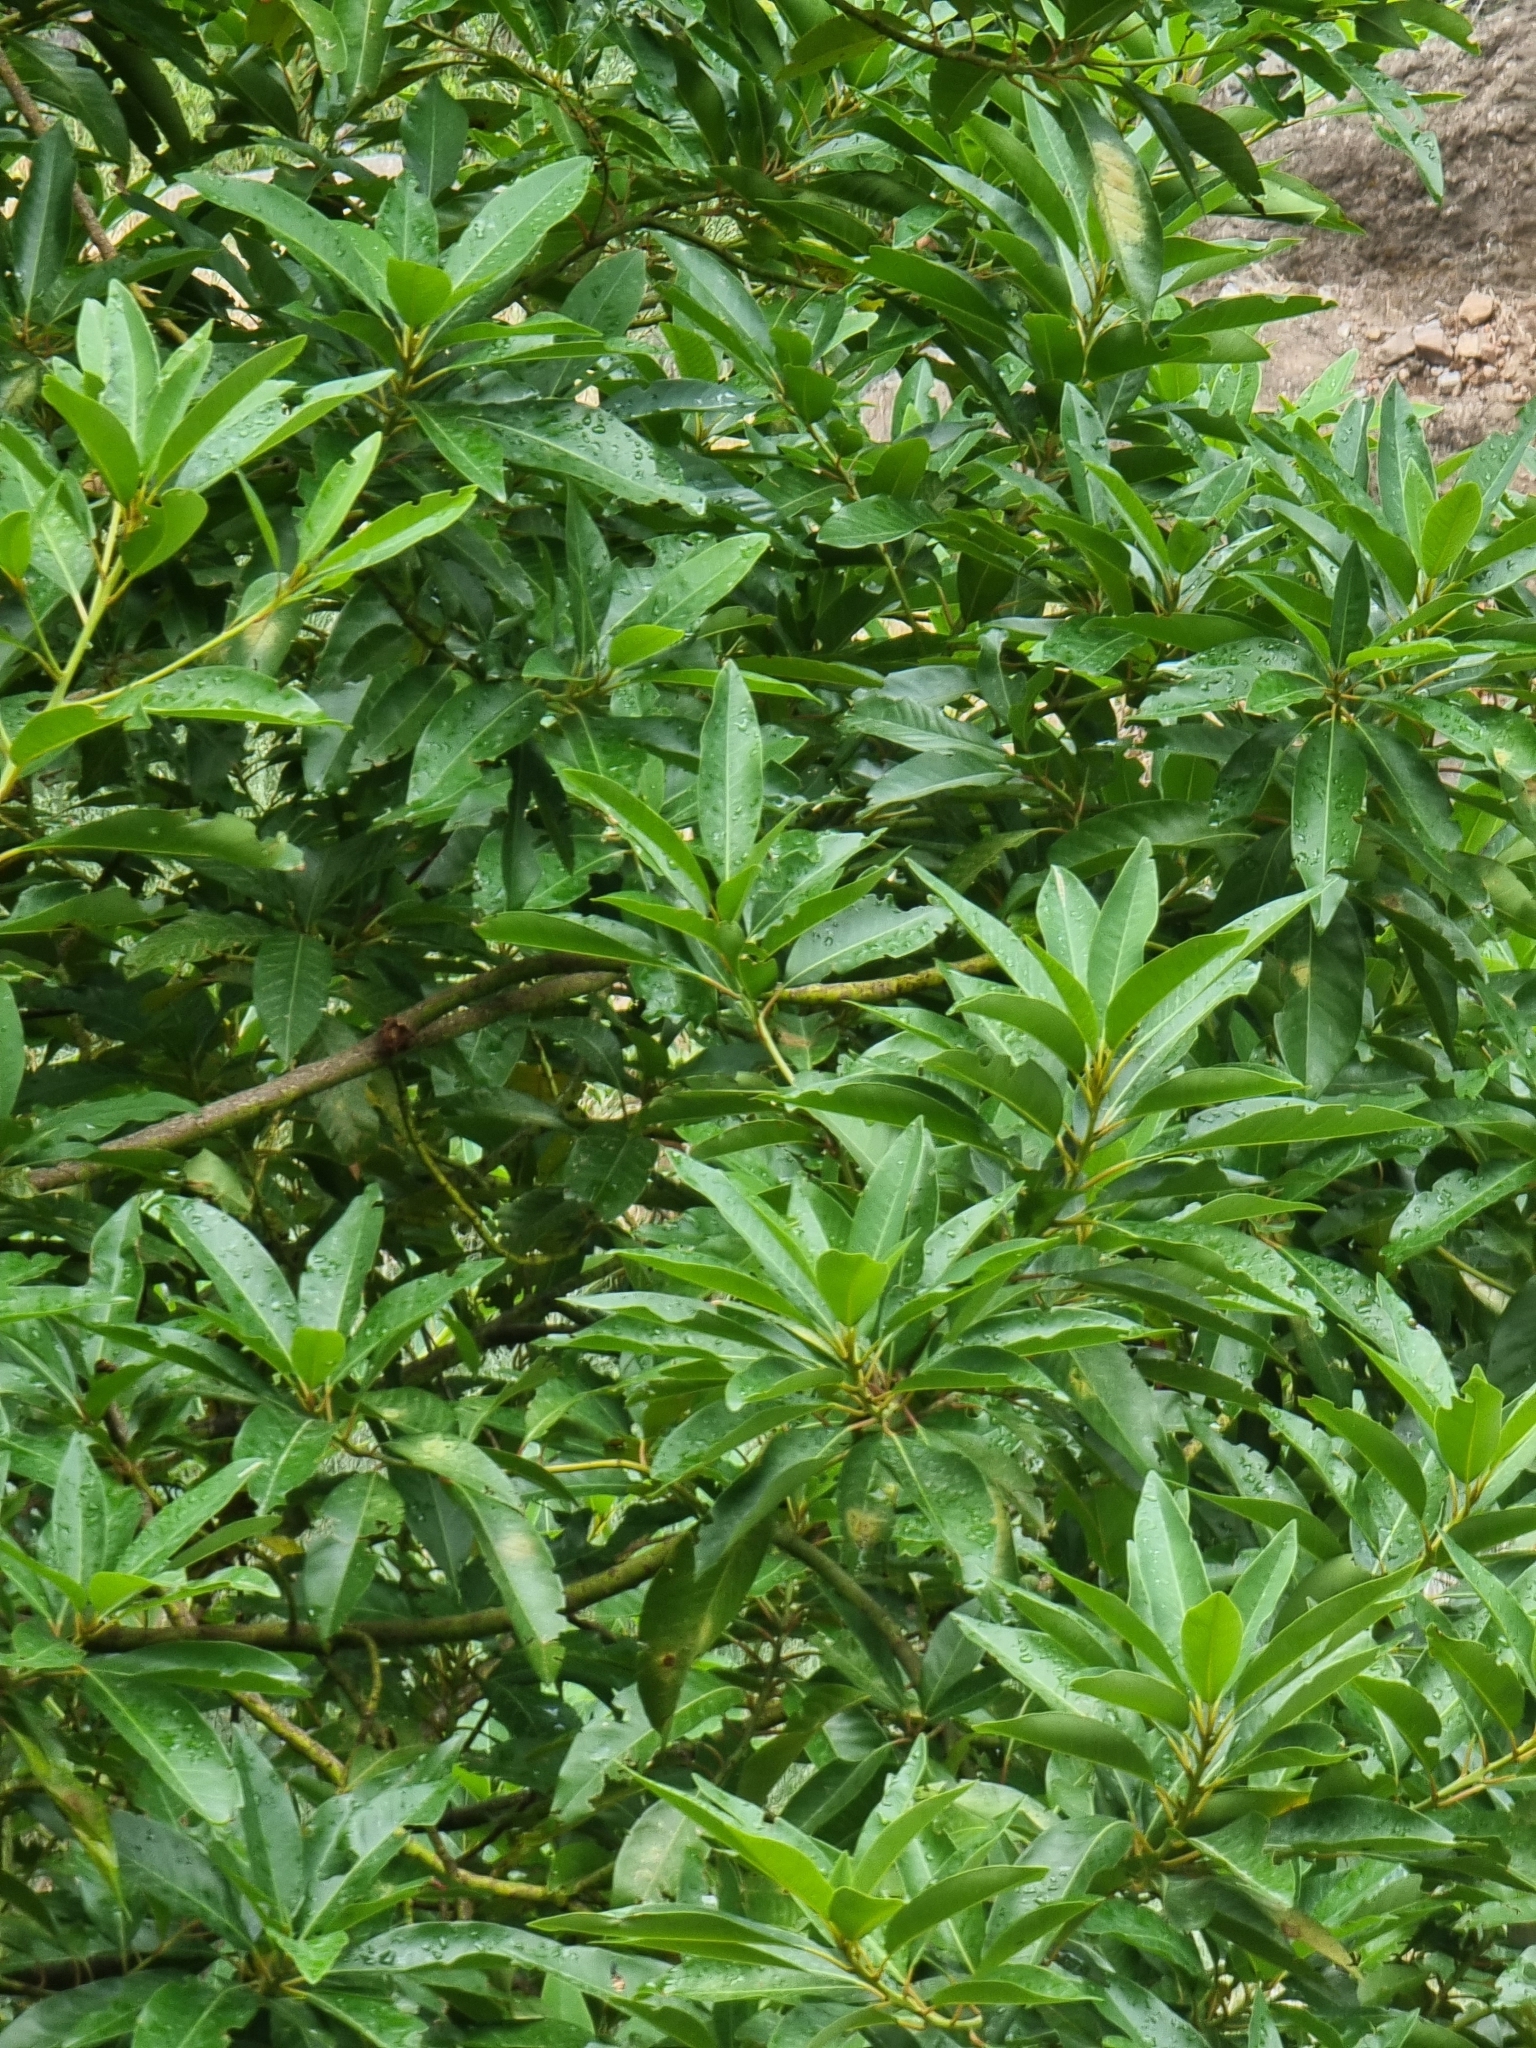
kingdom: Plantae
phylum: Tracheophyta
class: Magnoliopsida
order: Laurales
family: Lauraceae
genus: Persea
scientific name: Persea indica
